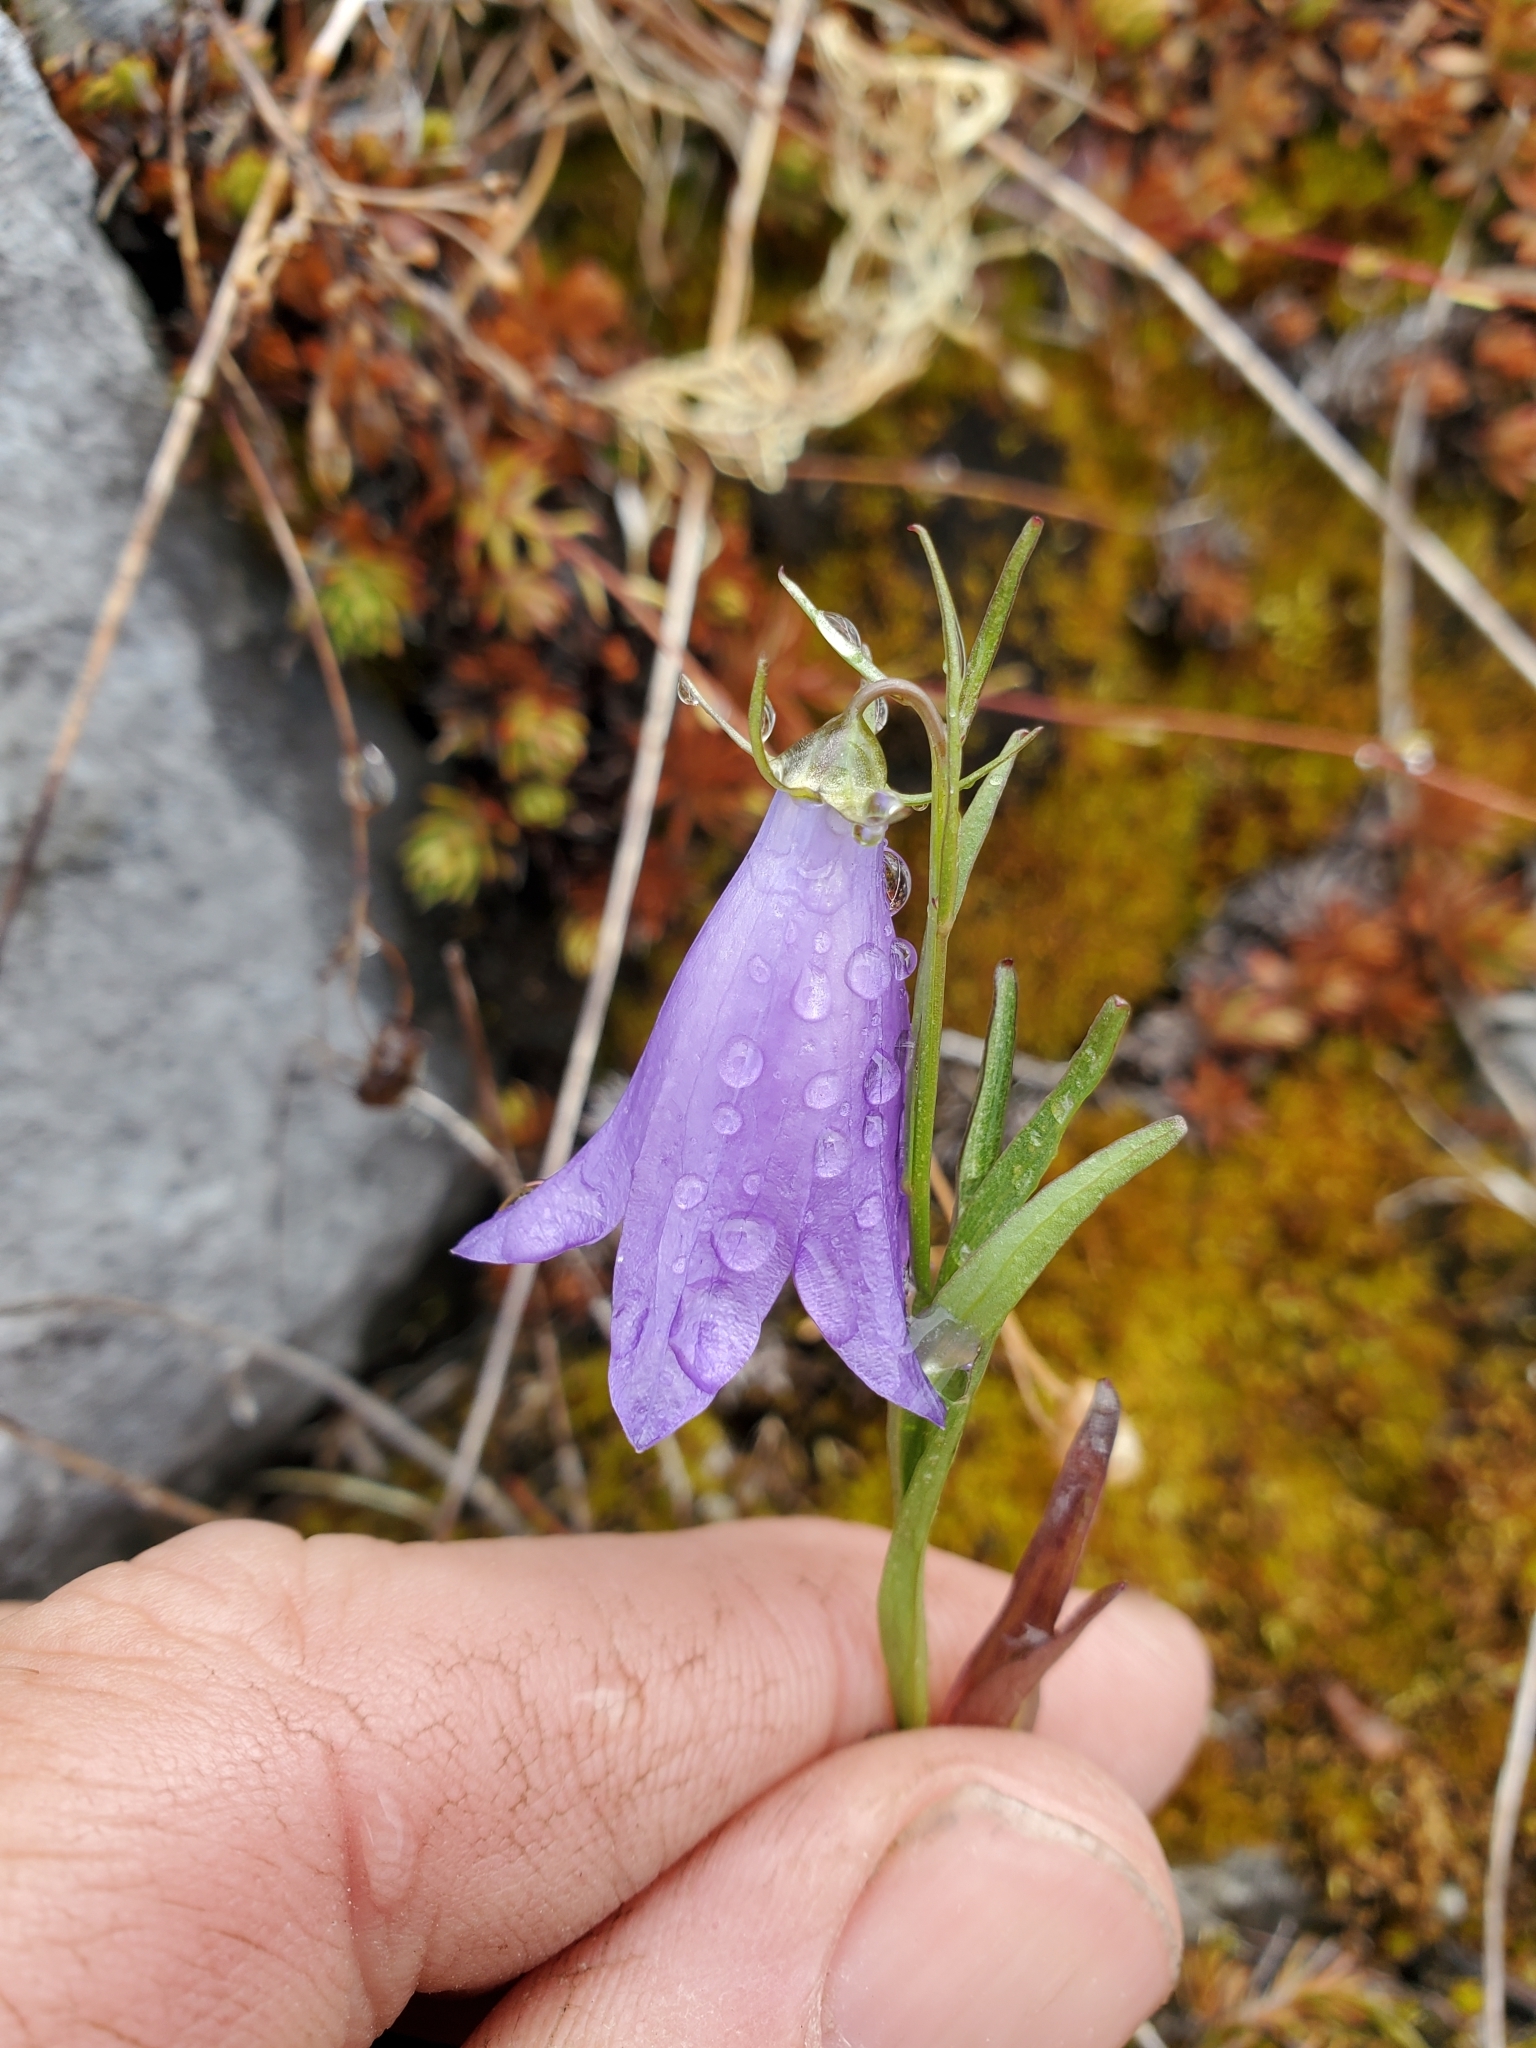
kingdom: Plantae
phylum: Tracheophyta
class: Magnoliopsida
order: Asterales
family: Campanulaceae
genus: Campanula
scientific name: Campanula alaskana
